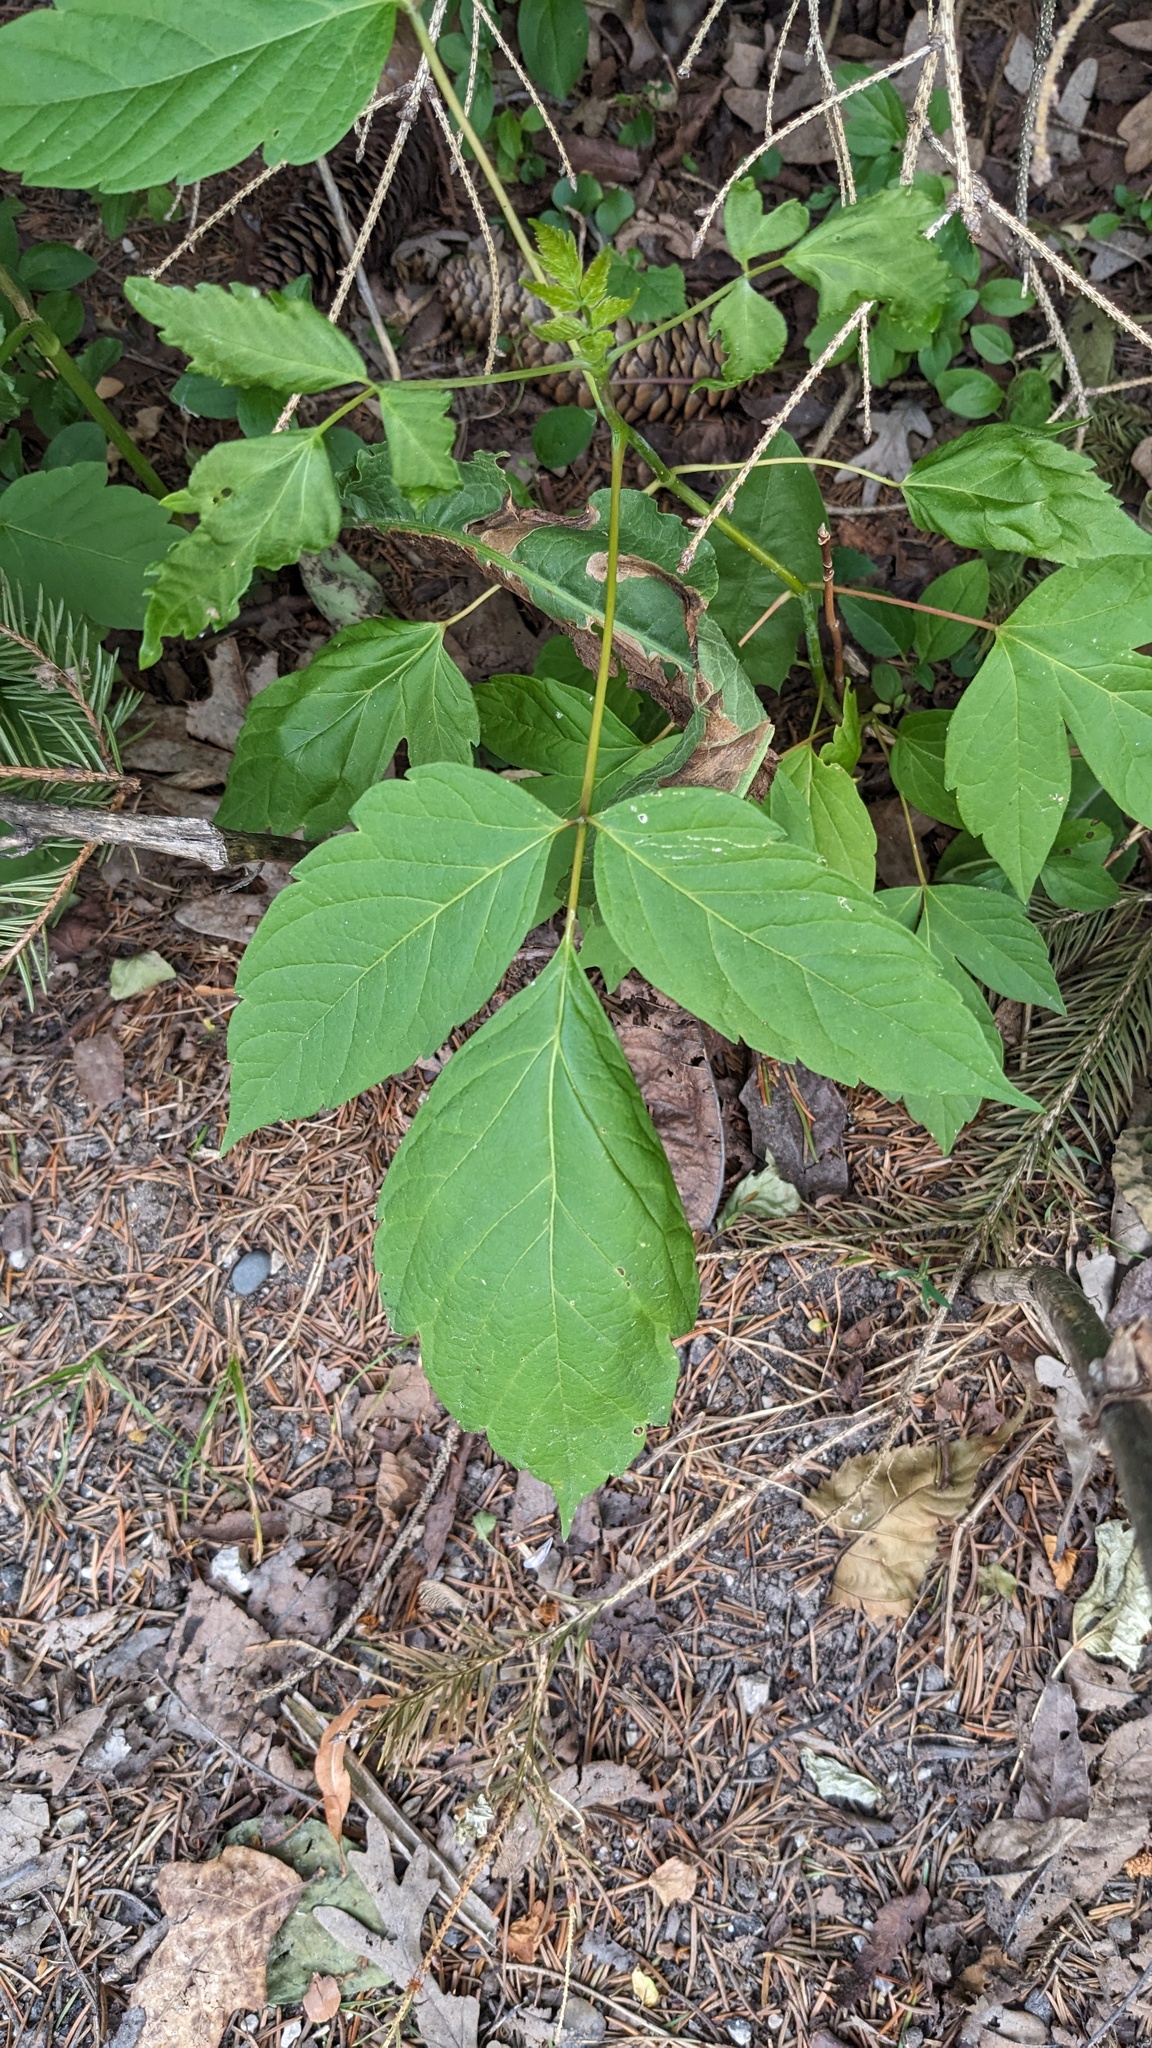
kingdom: Plantae
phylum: Tracheophyta
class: Magnoliopsida
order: Sapindales
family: Sapindaceae
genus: Acer
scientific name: Acer negundo
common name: Ashleaf maple
